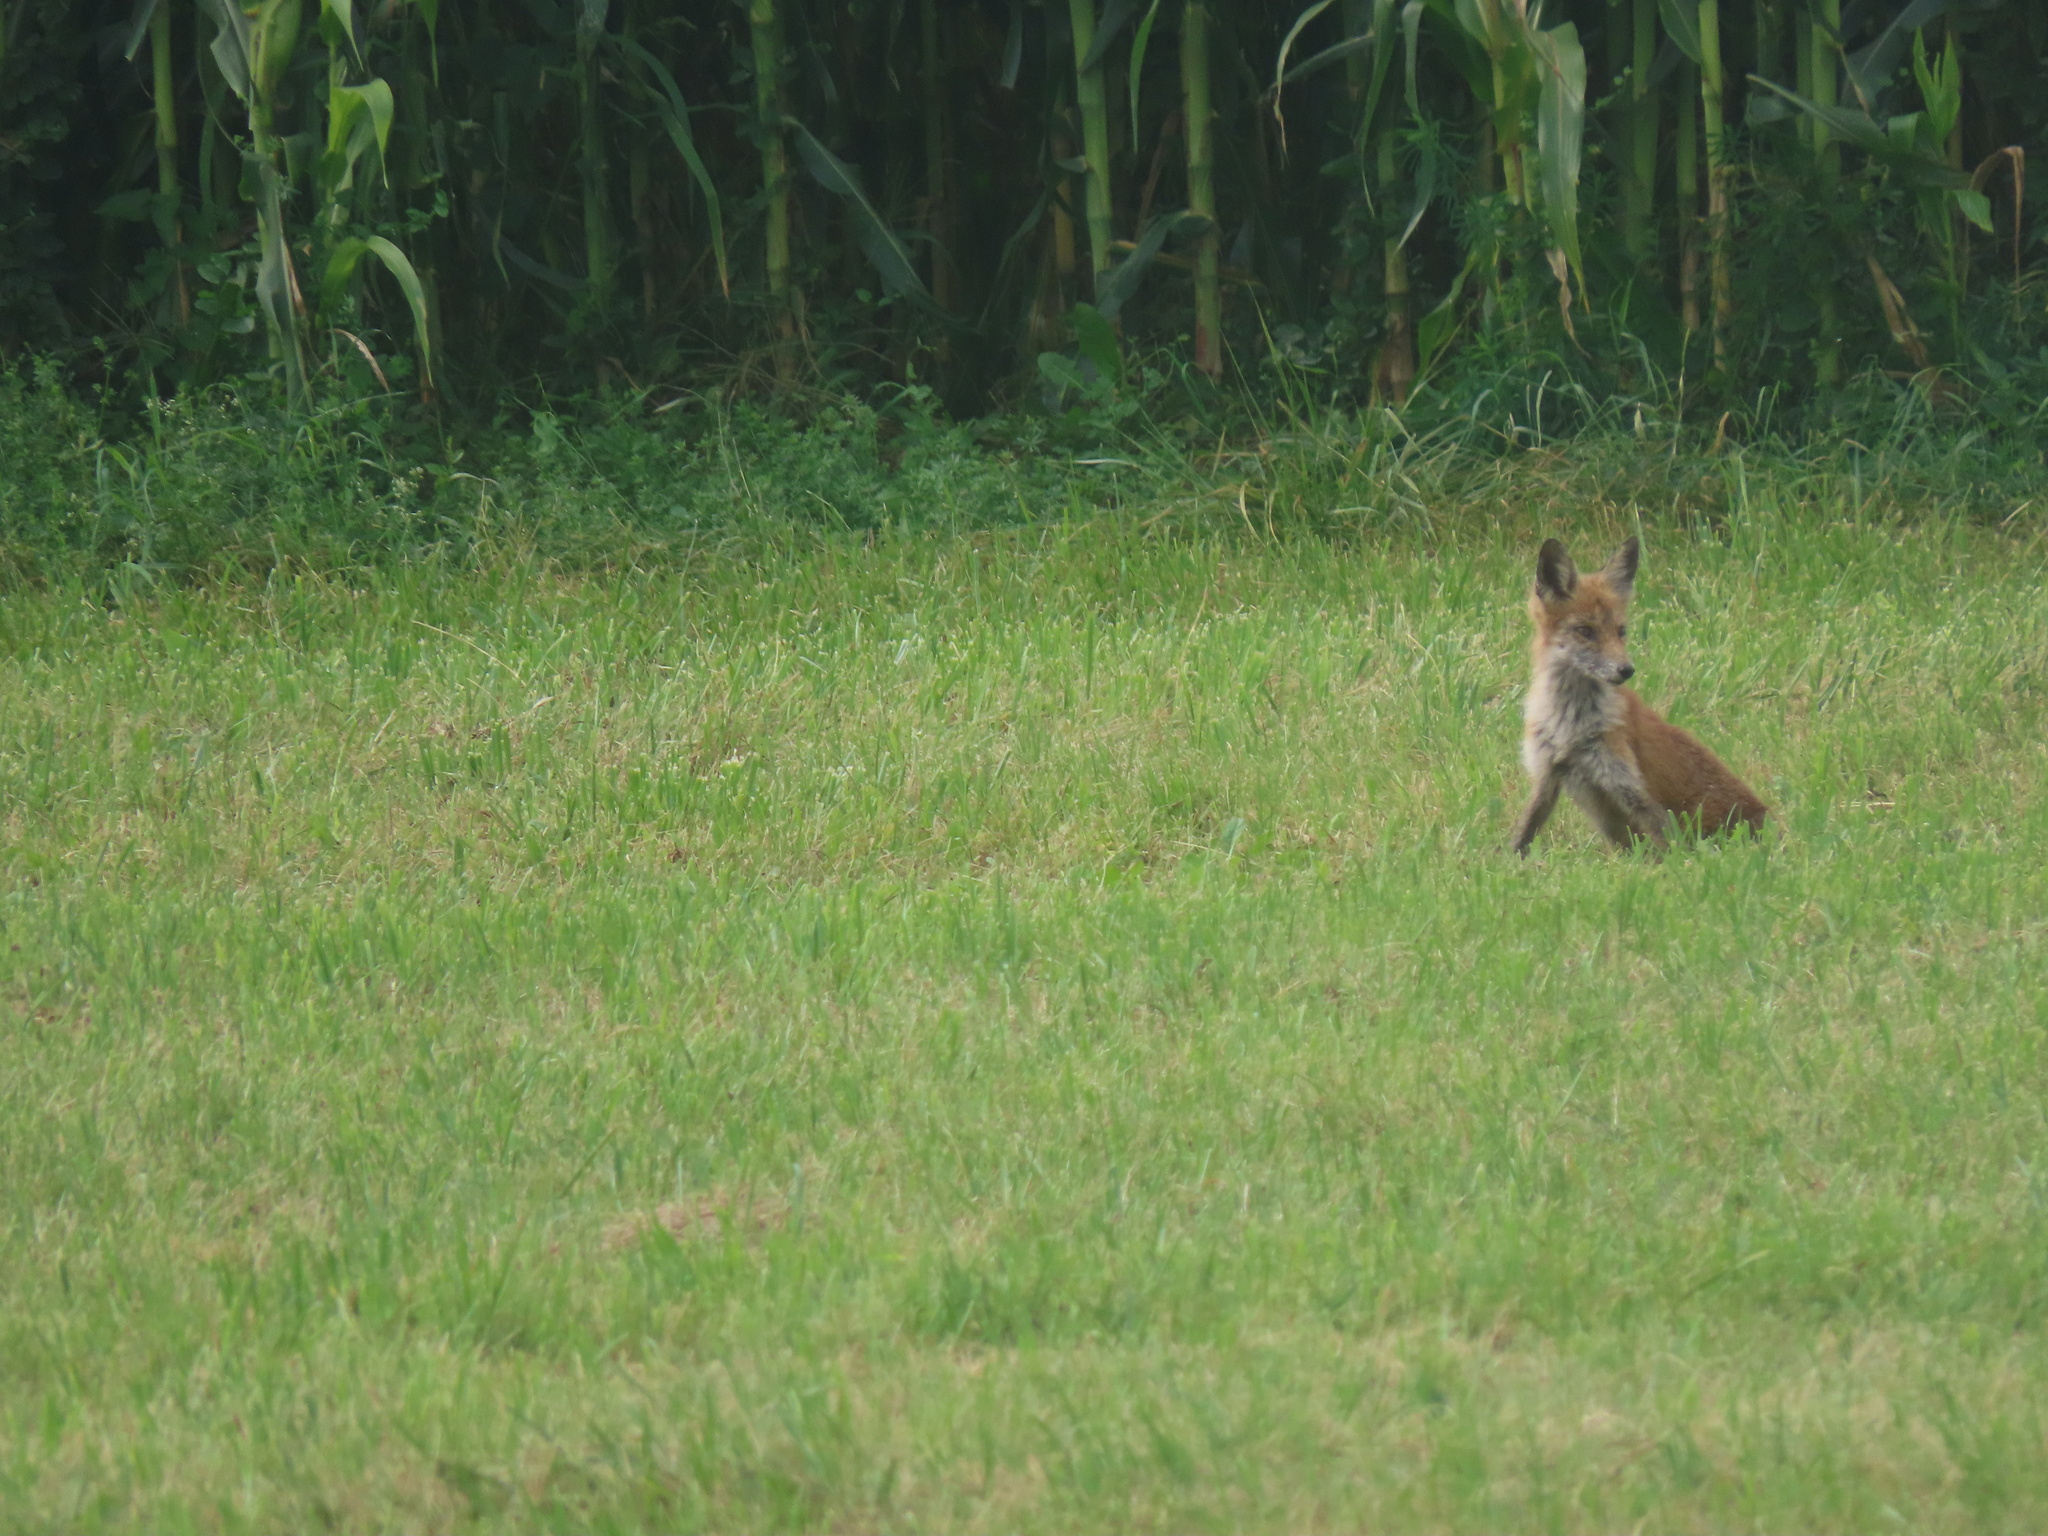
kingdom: Animalia
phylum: Chordata
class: Mammalia
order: Carnivora
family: Canidae
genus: Vulpes
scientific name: Vulpes vulpes
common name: Red fox
